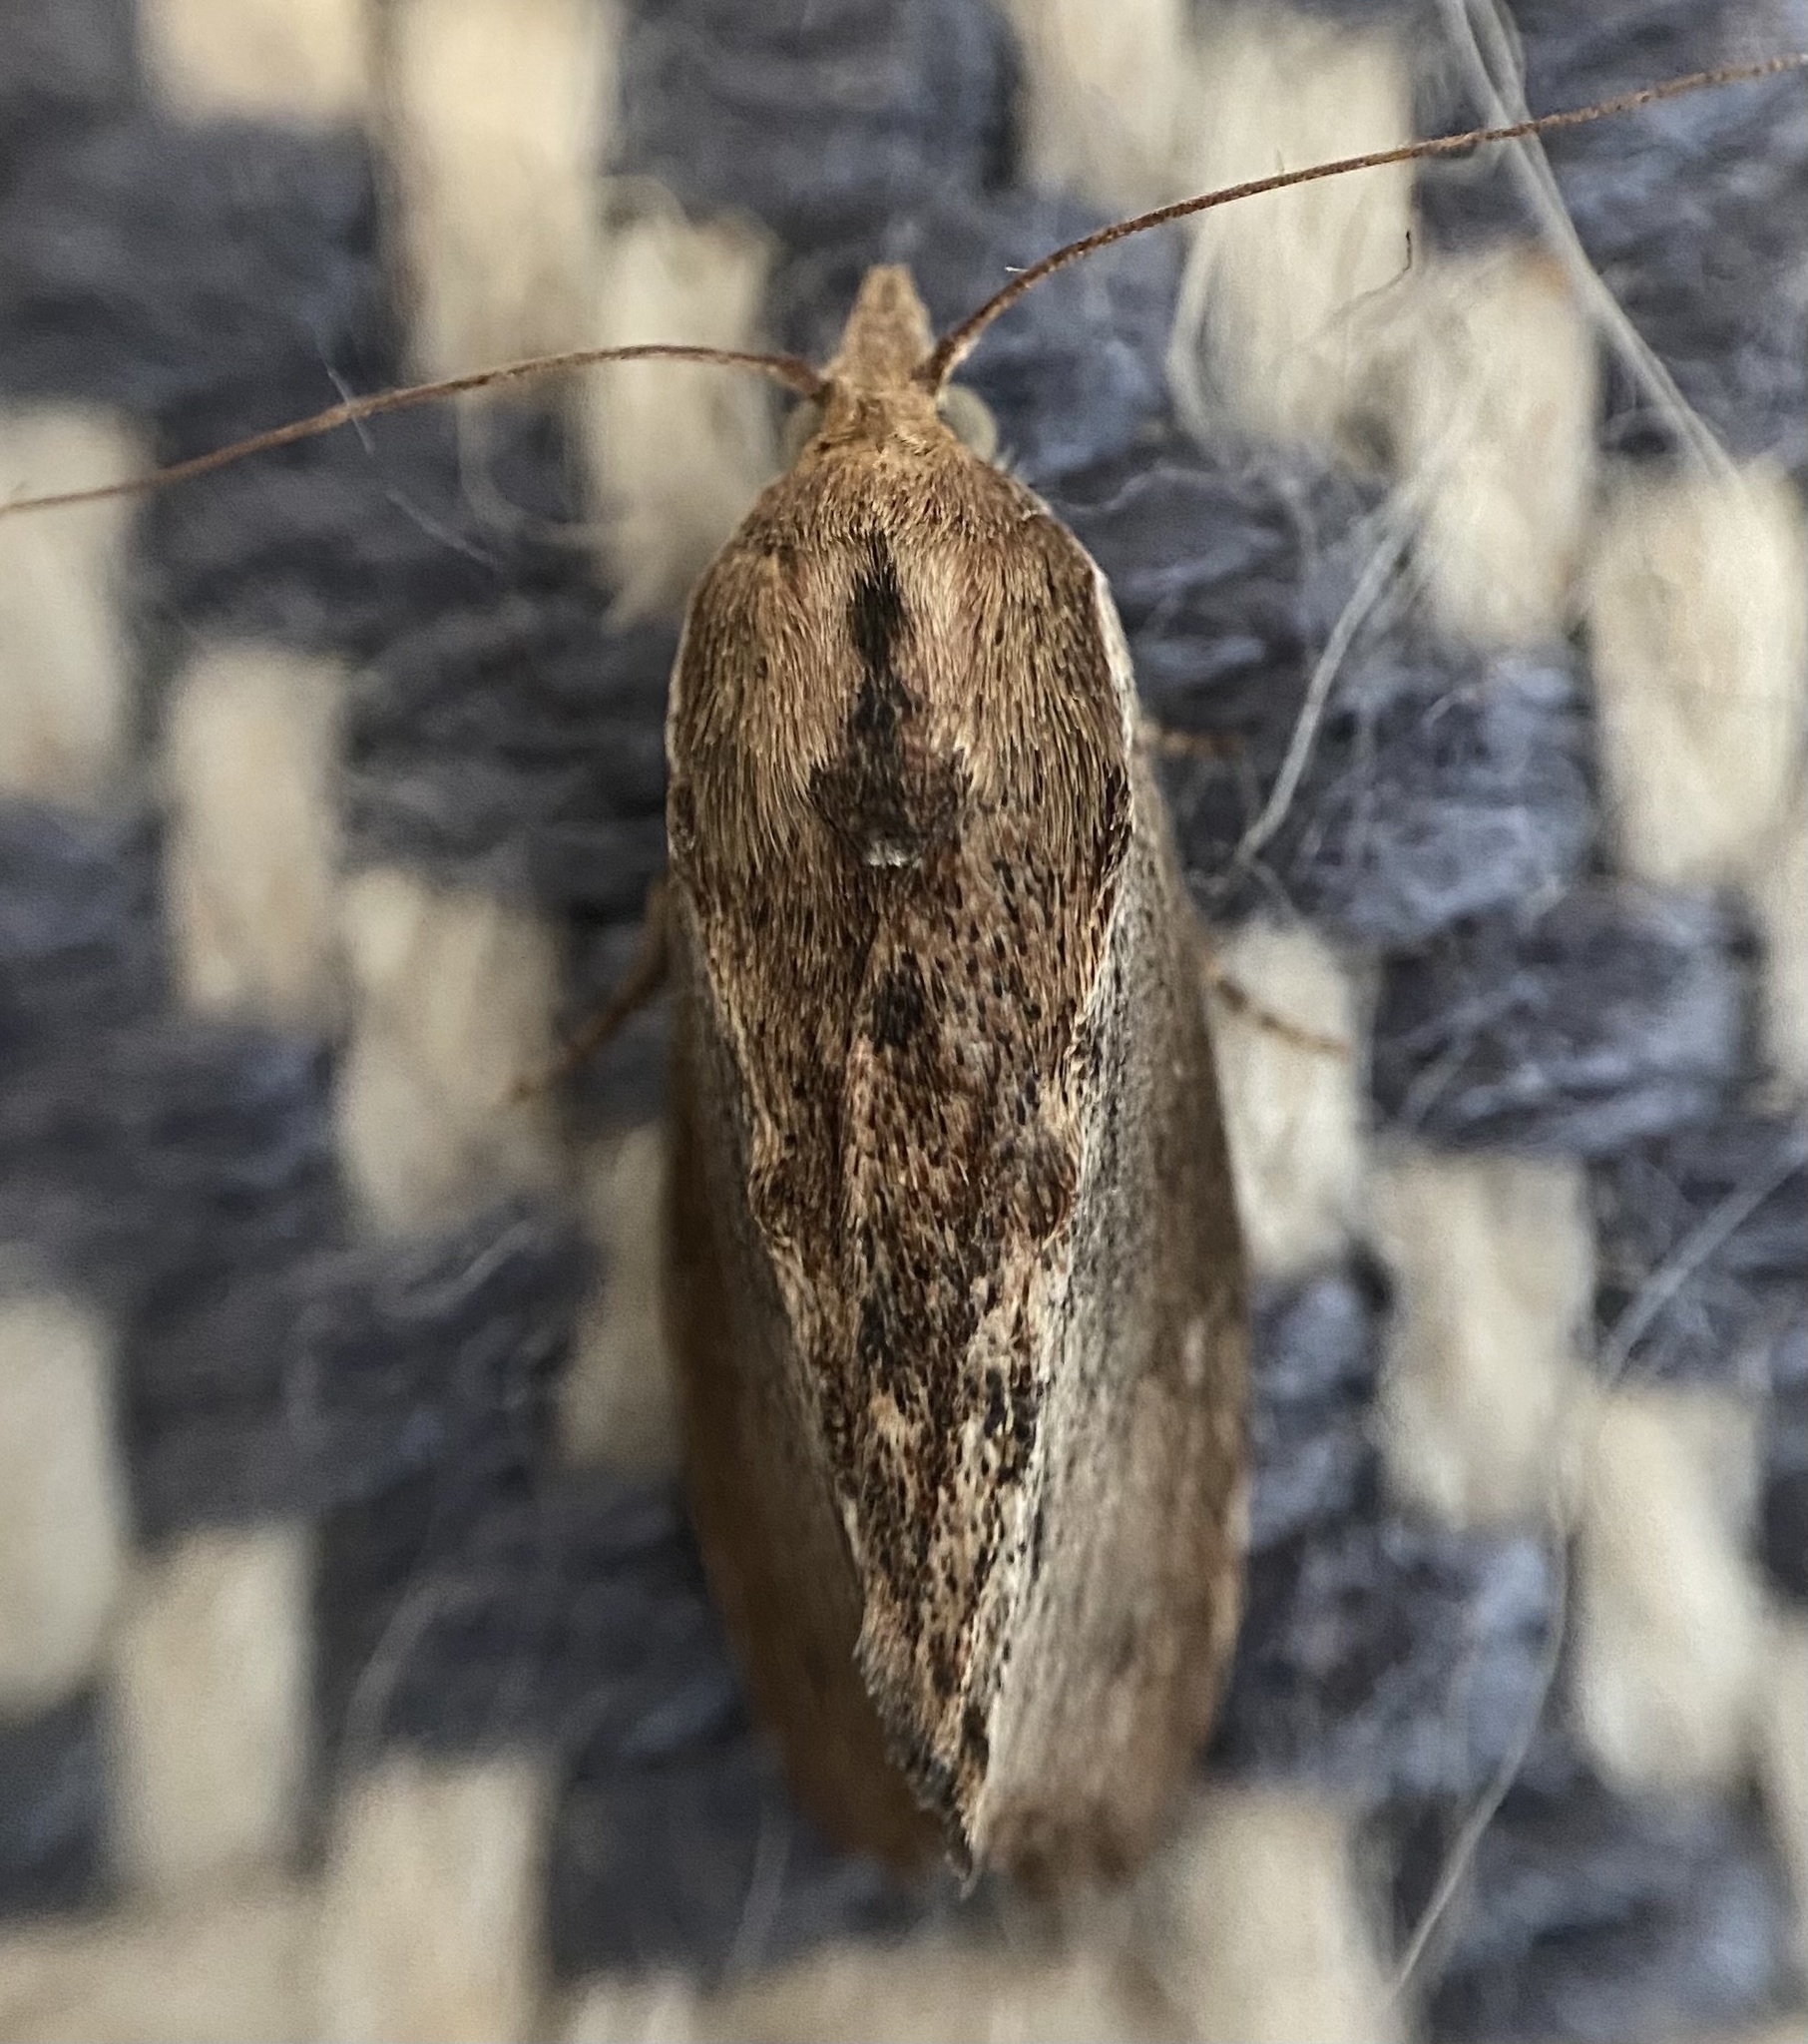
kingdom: Animalia
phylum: Arthropoda
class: Insecta
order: Lepidoptera
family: Pyralidae
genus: Galleria
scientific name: Galleria mellonella
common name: Greater wax moth
